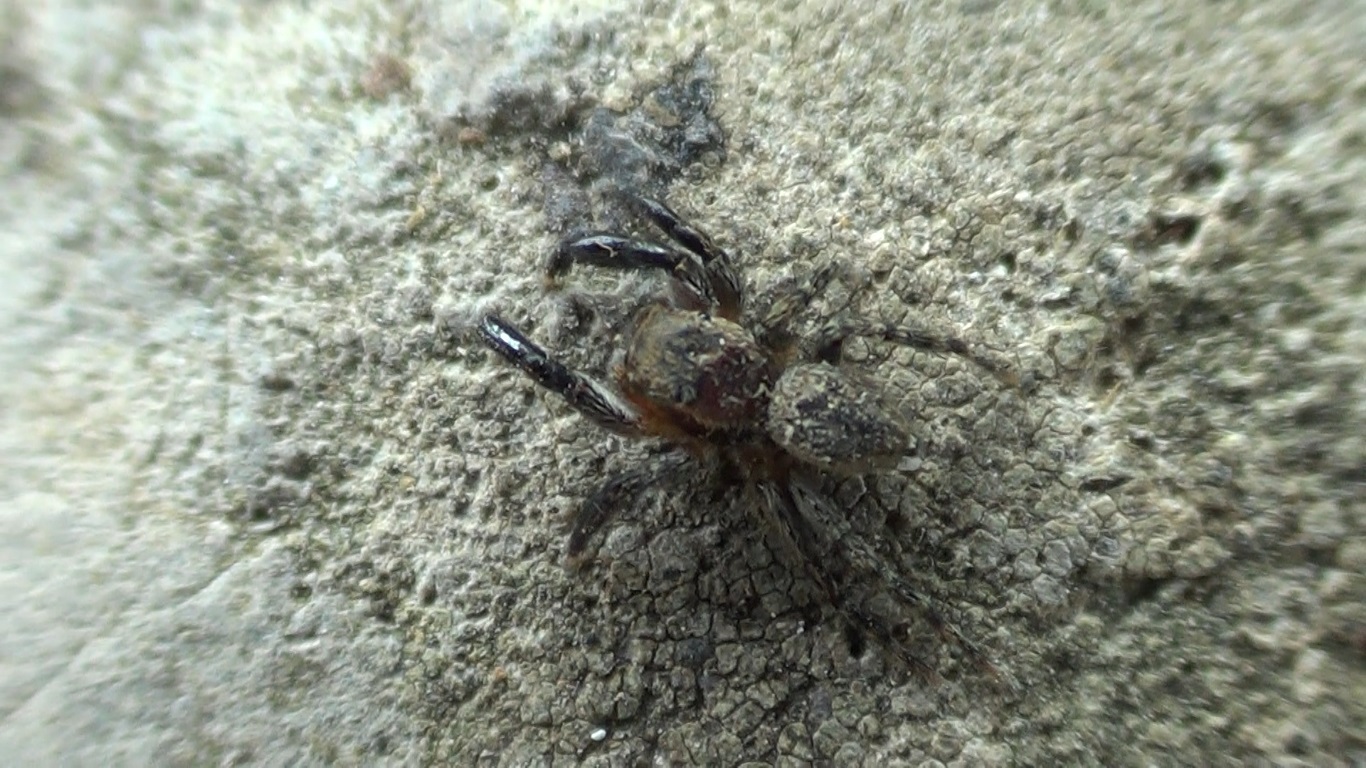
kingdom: Animalia
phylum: Arthropoda
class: Arachnida
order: Araneae
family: Salticidae
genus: Euophrys
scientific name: Euophrys rufibarbis
